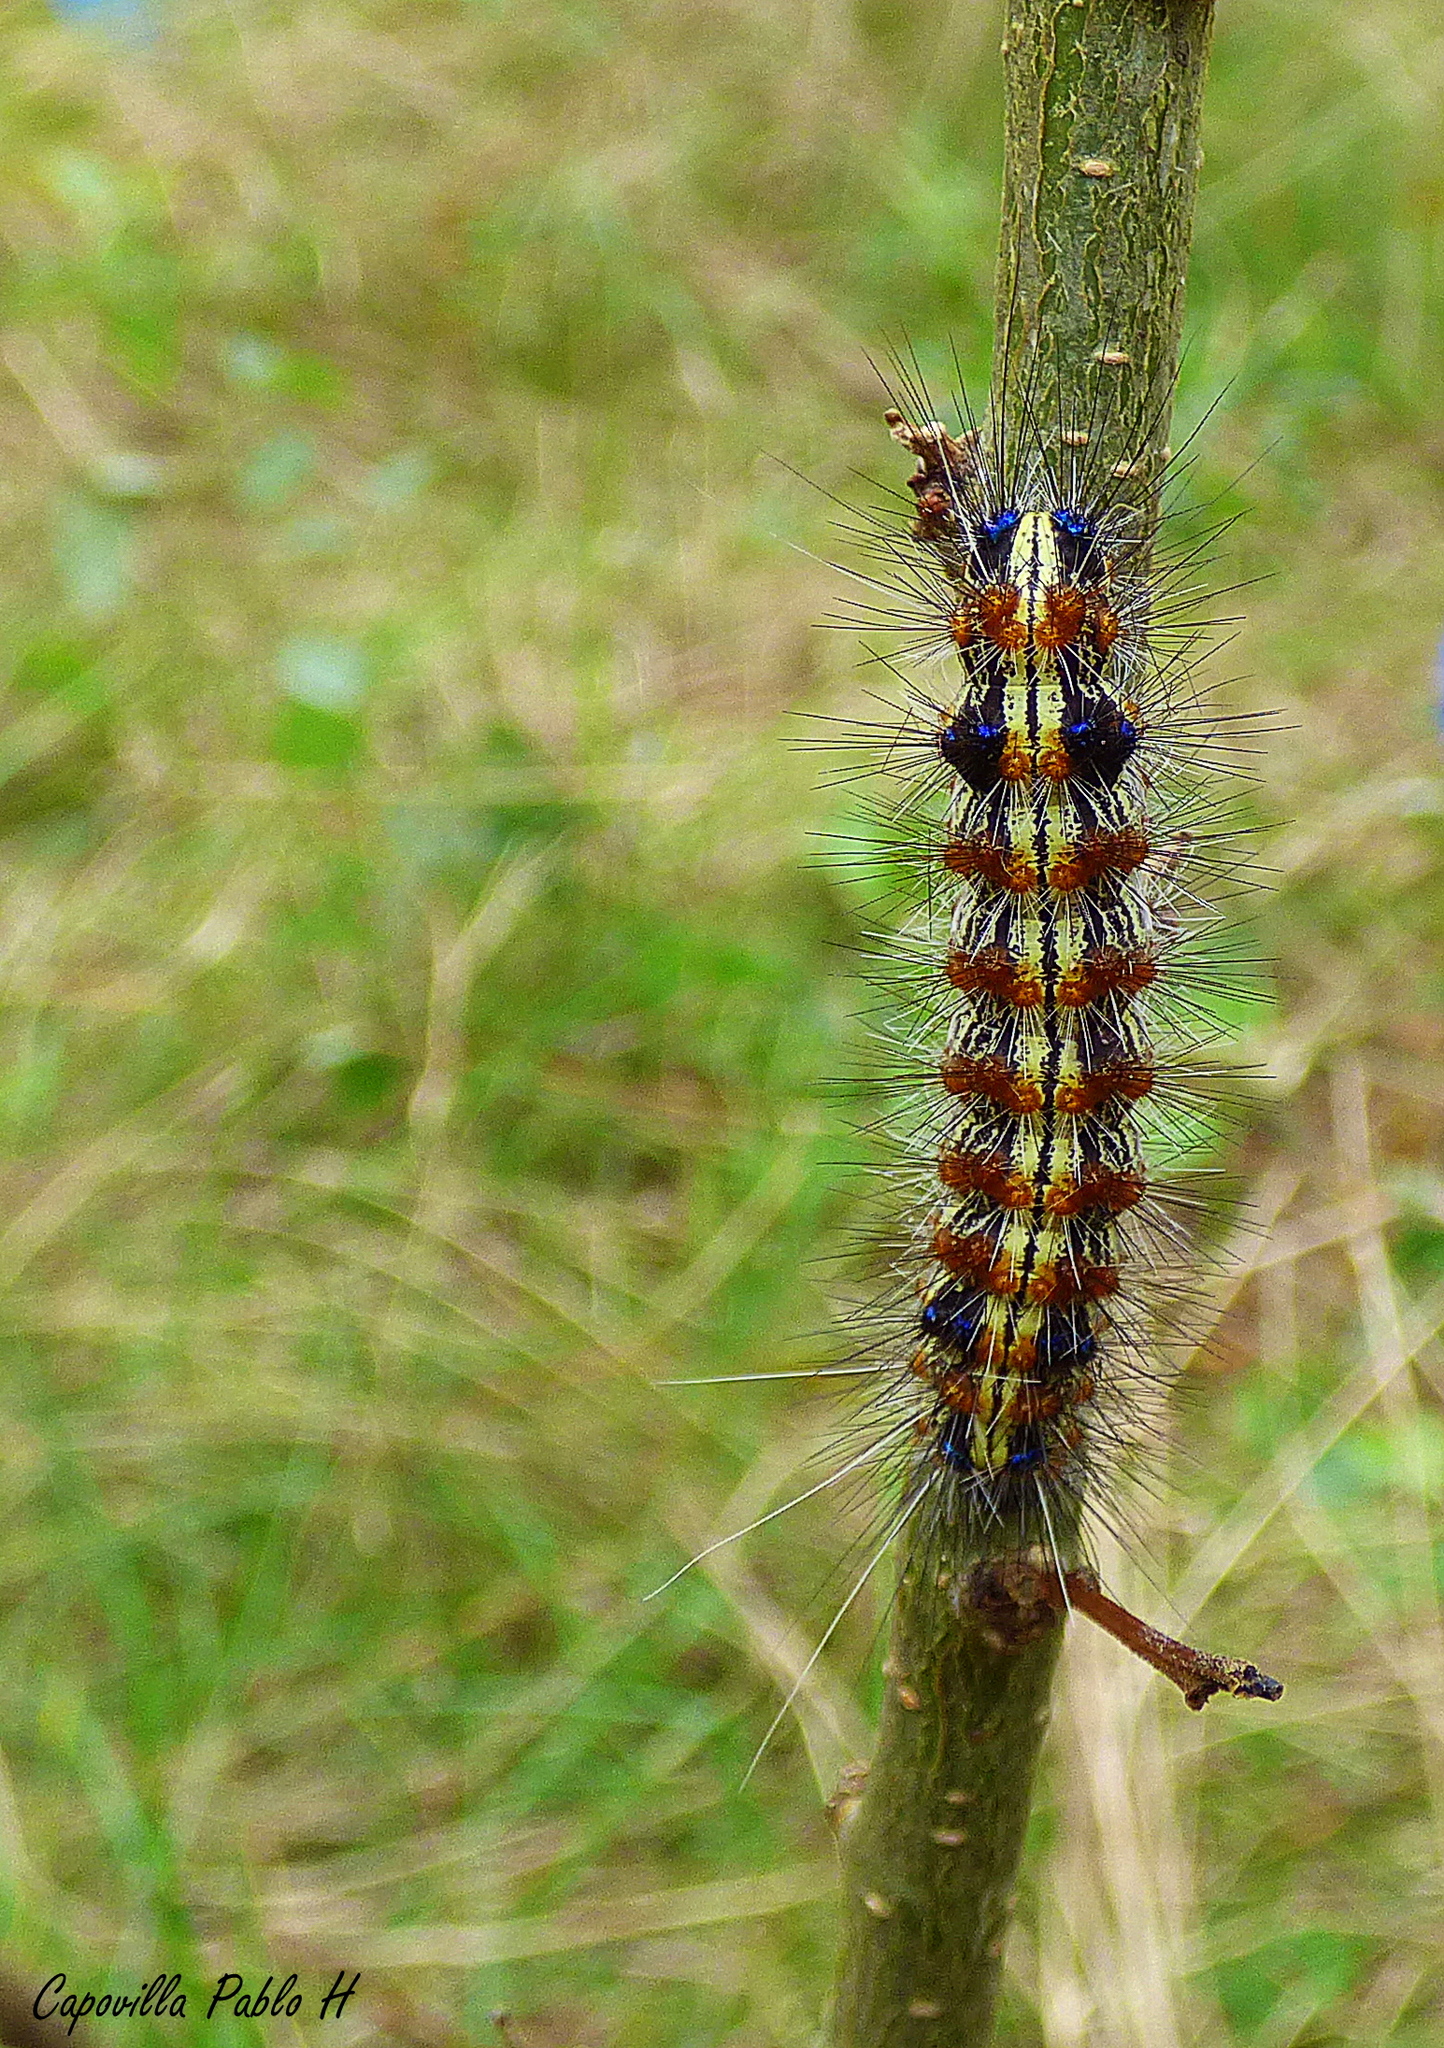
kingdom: Animalia
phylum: Arthropoda
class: Insecta
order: Lepidoptera
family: Erebidae
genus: Dysschema
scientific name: Dysschema sacrifica
